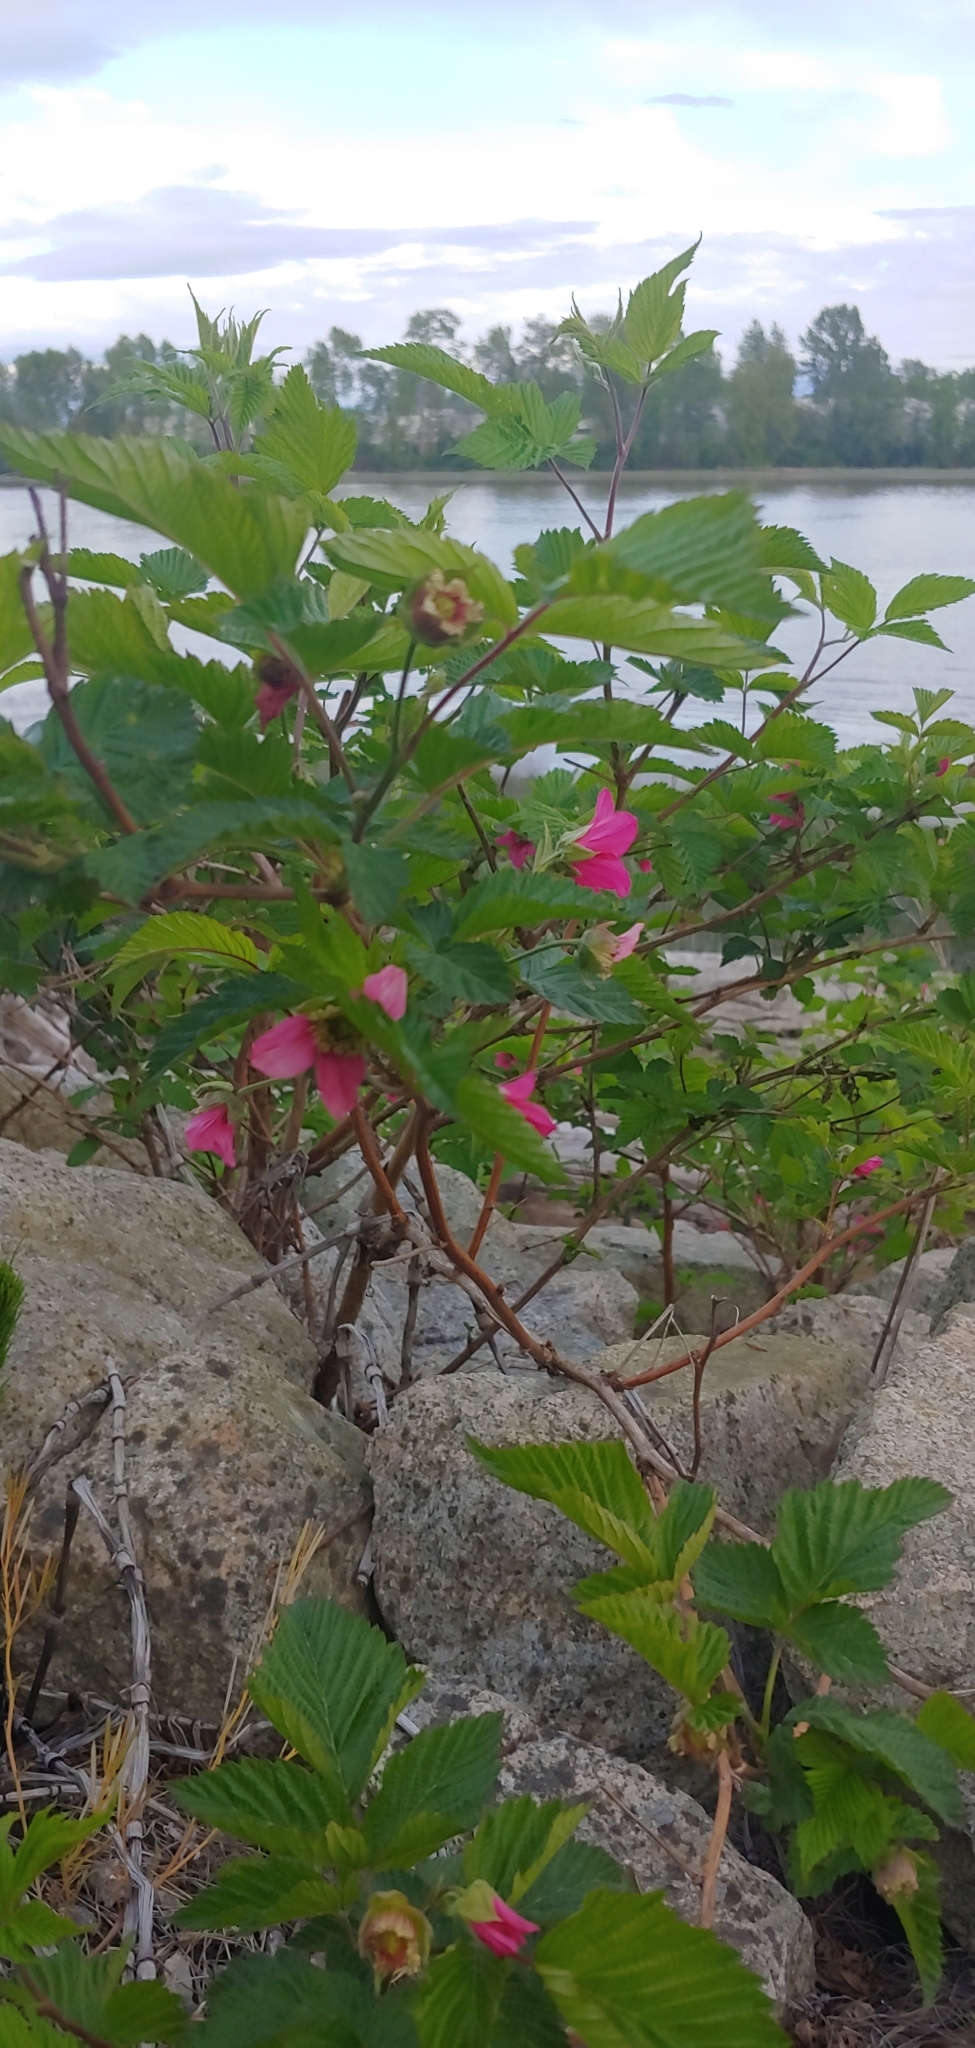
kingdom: Plantae
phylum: Tracheophyta
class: Magnoliopsida
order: Rosales
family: Rosaceae
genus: Rubus
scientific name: Rubus spectabilis
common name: Salmonberry
